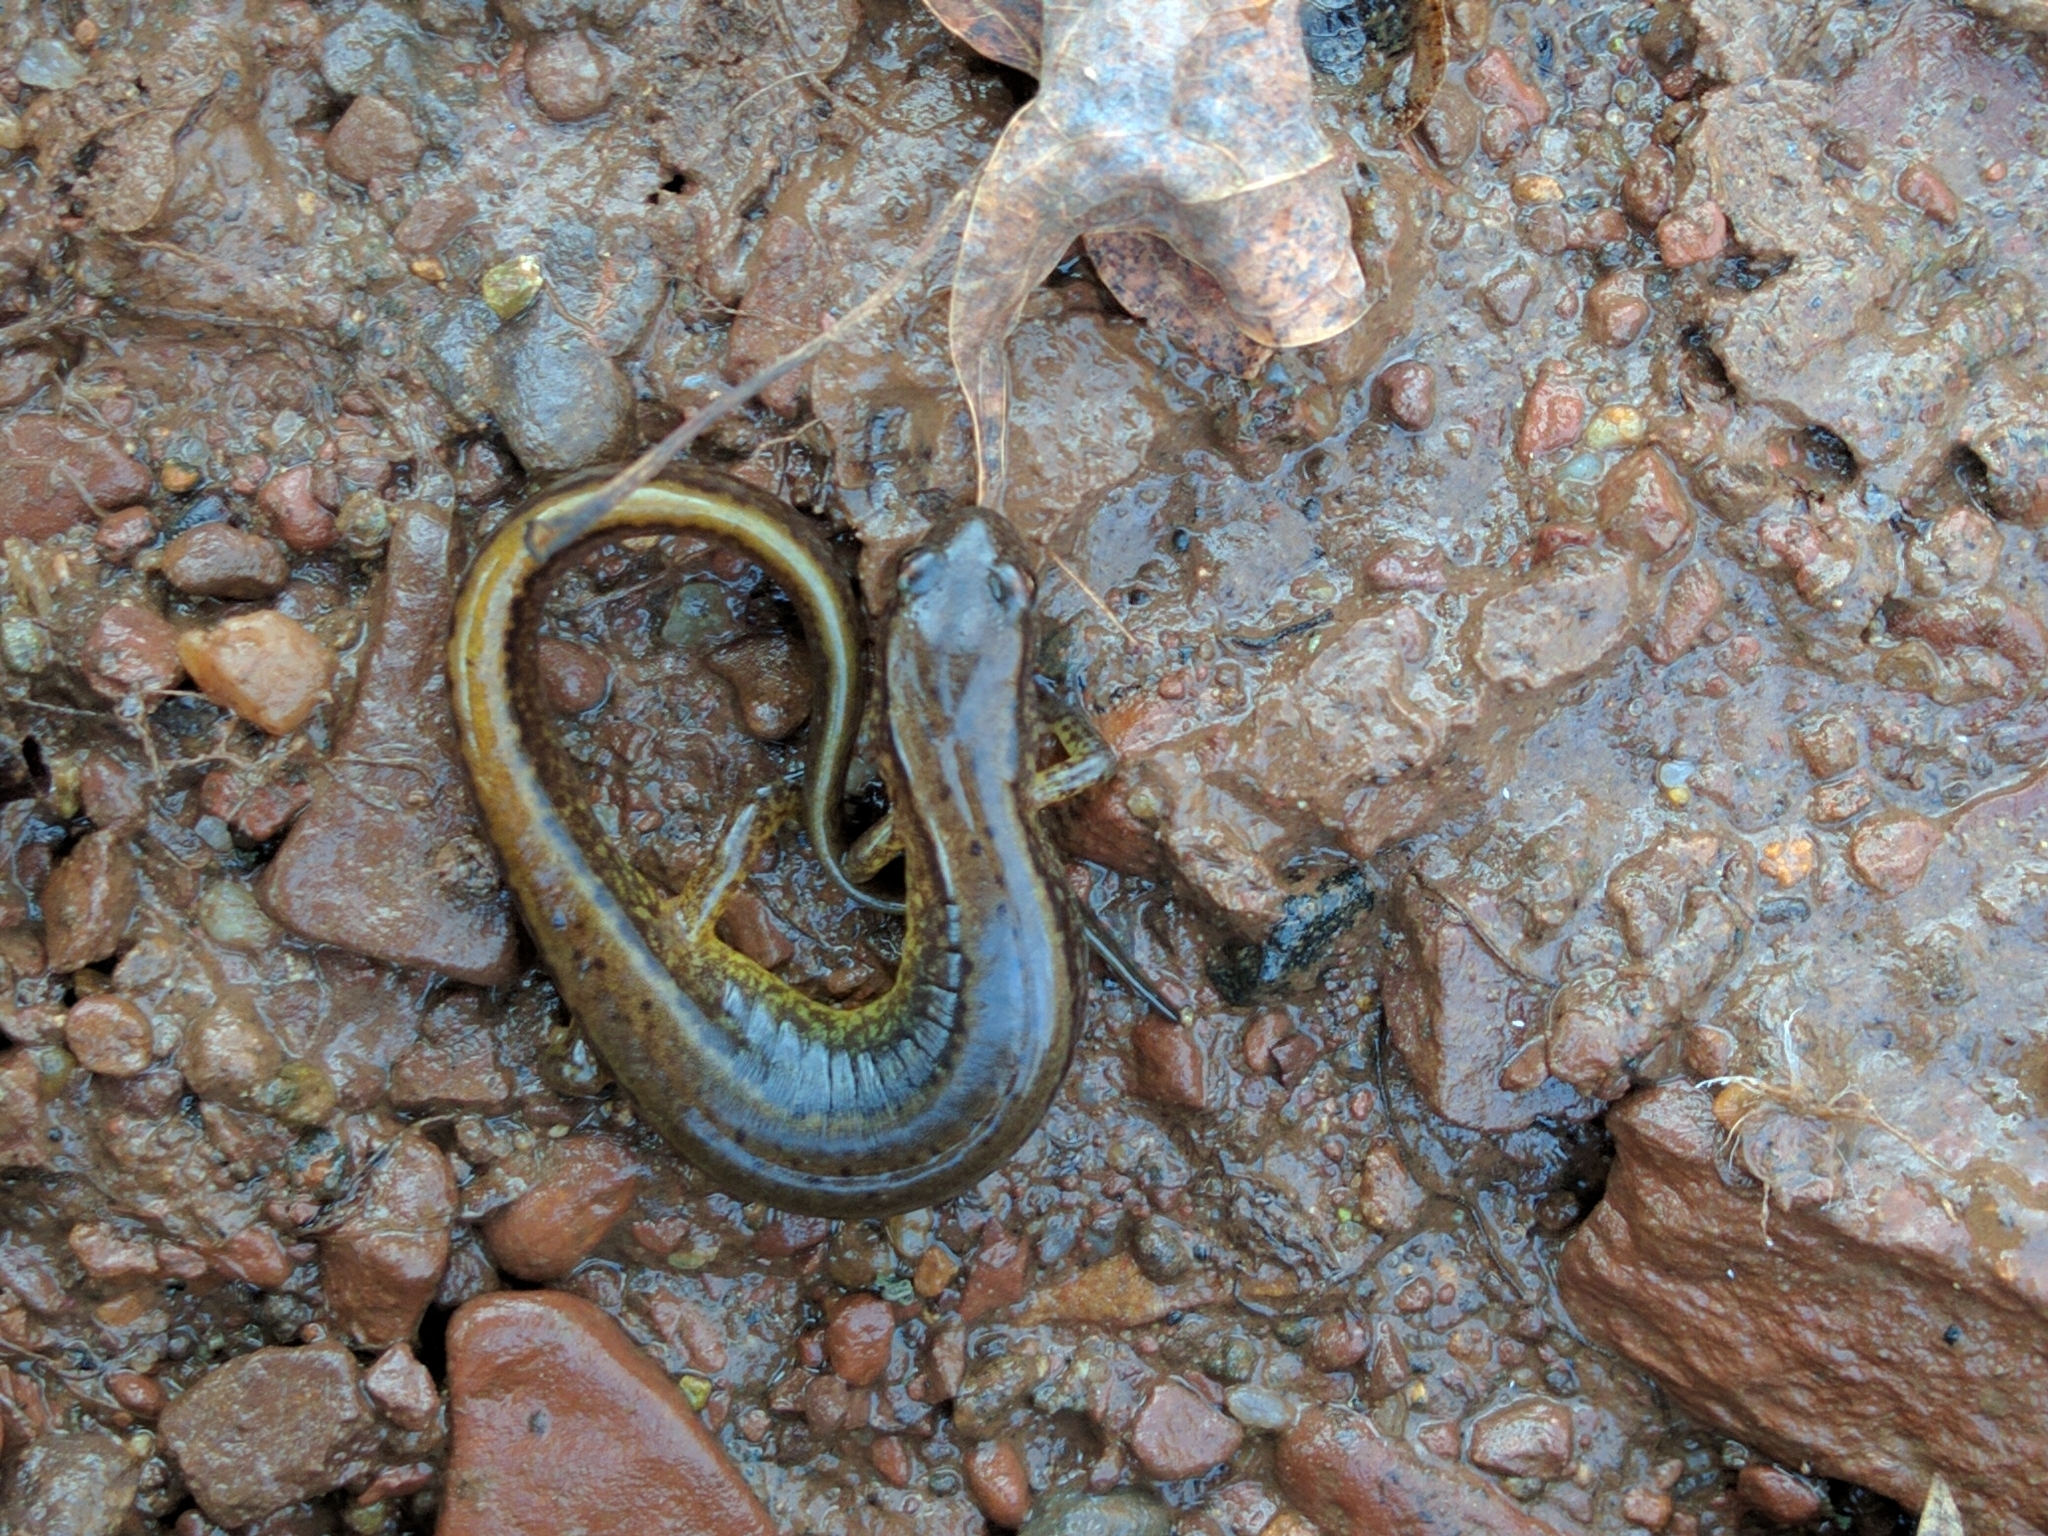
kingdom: Animalia
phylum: Chordata
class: Amphibia
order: Caudata
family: Plethodontidae
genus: Eurycea
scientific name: Eurycea bislineata
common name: Northern two-lined salamander
